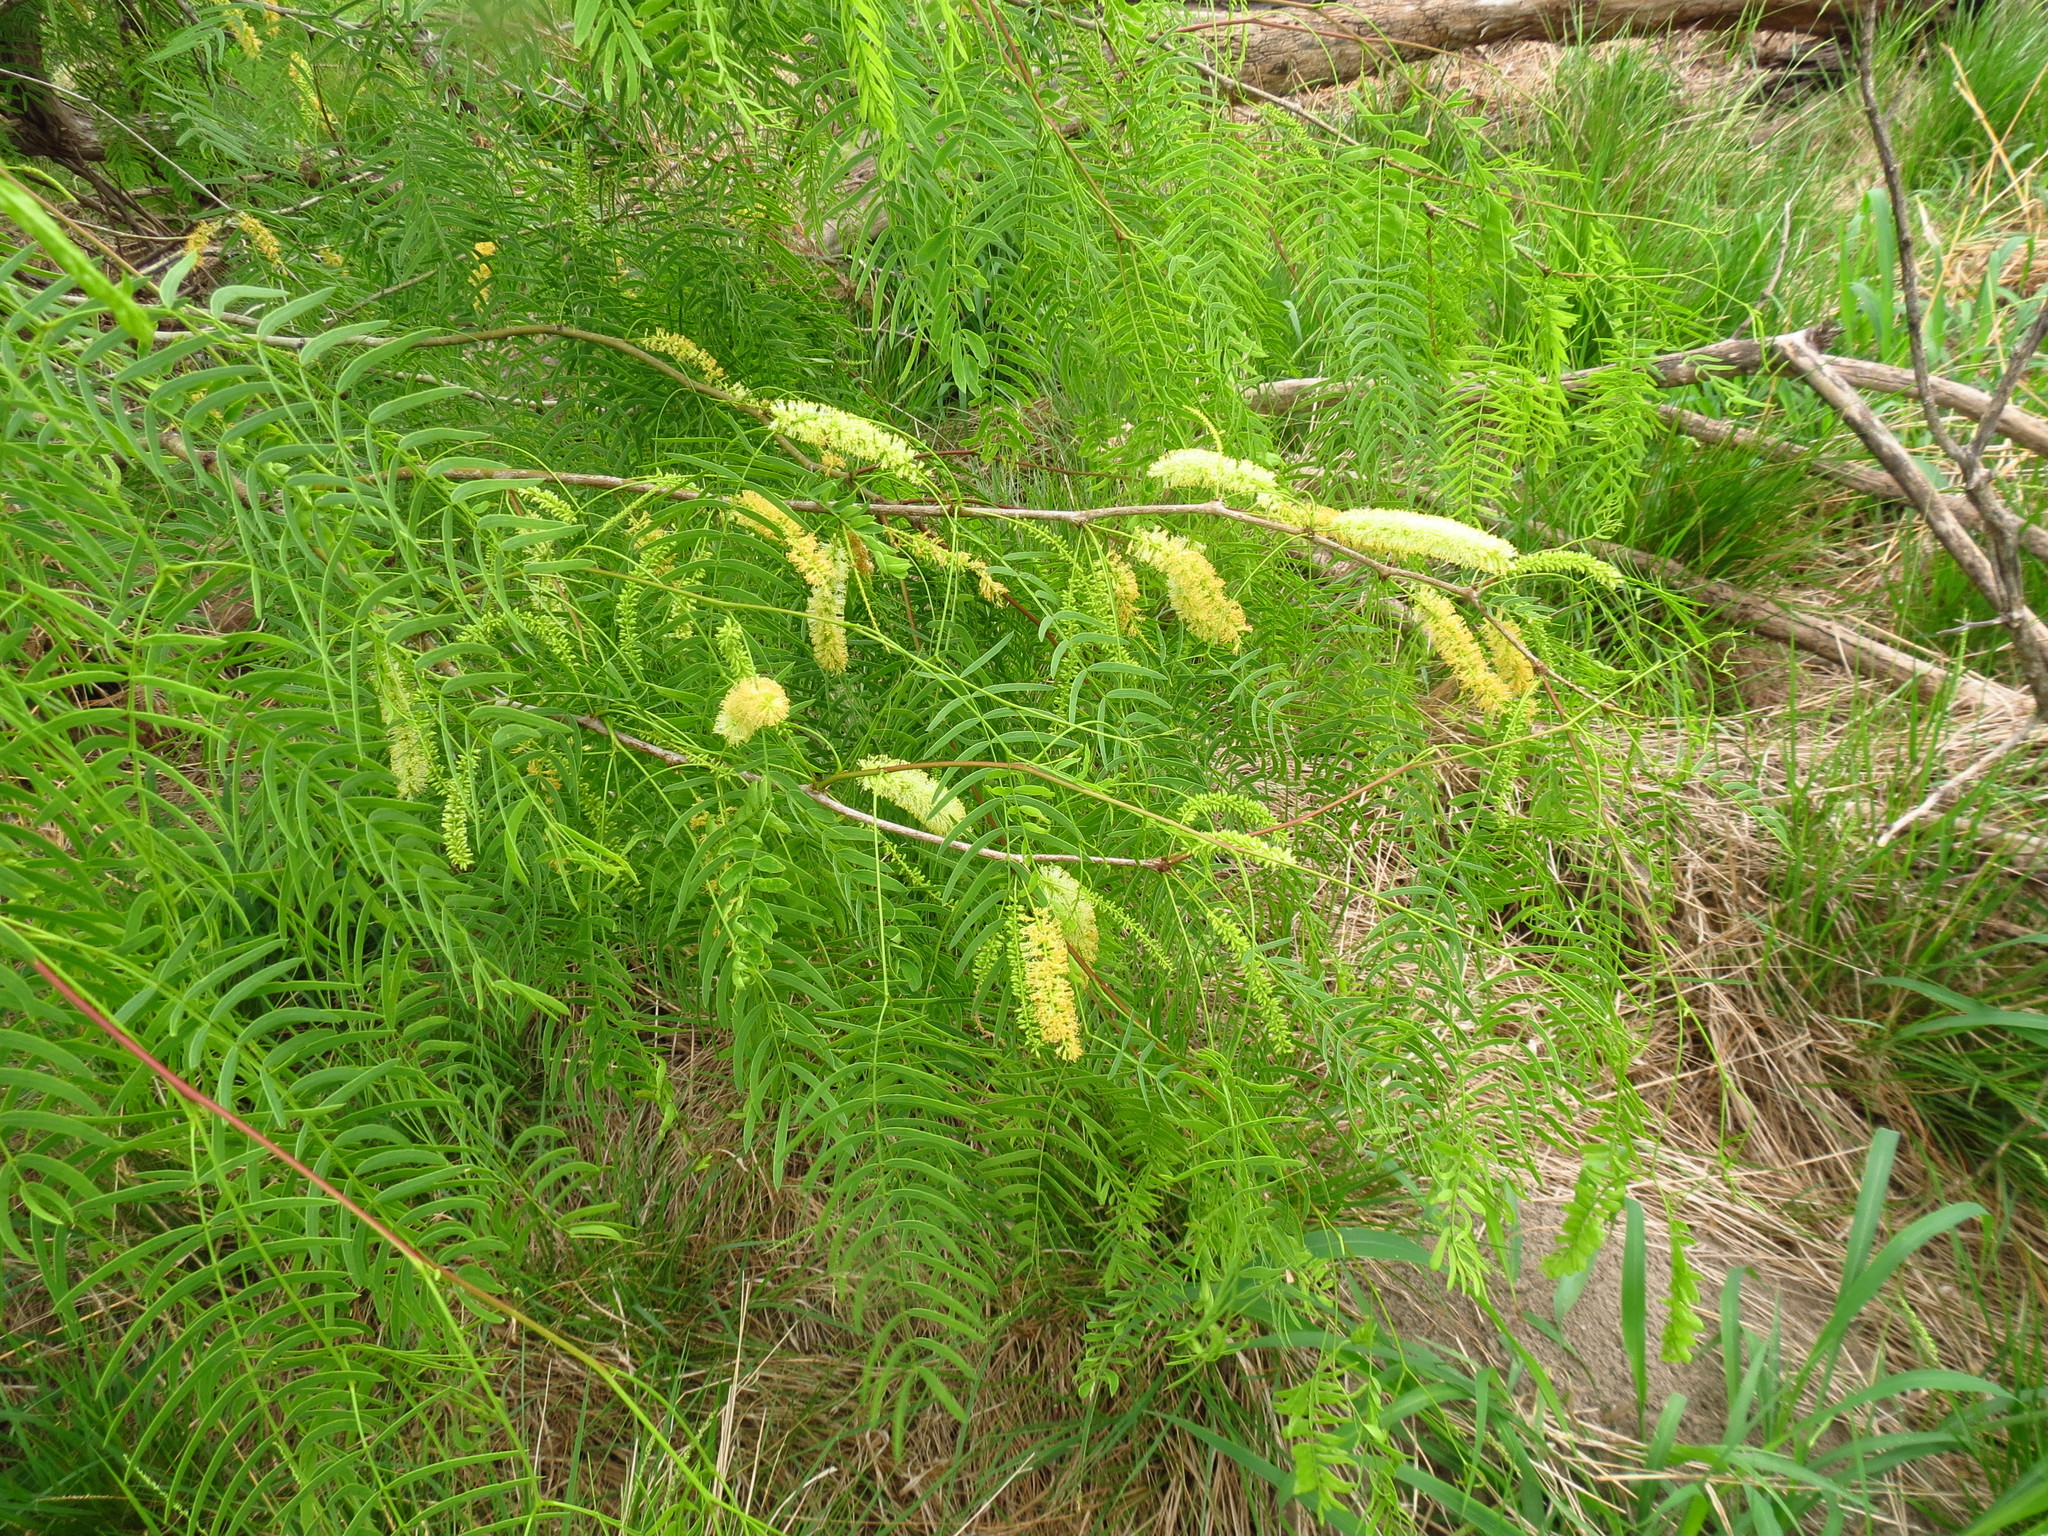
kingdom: Plantae
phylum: Tracheophyta
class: Magnoliopsida
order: Fabales
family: Fabaceae
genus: Prosopis
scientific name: Prosopis glandulosa
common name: Honey mesquite
